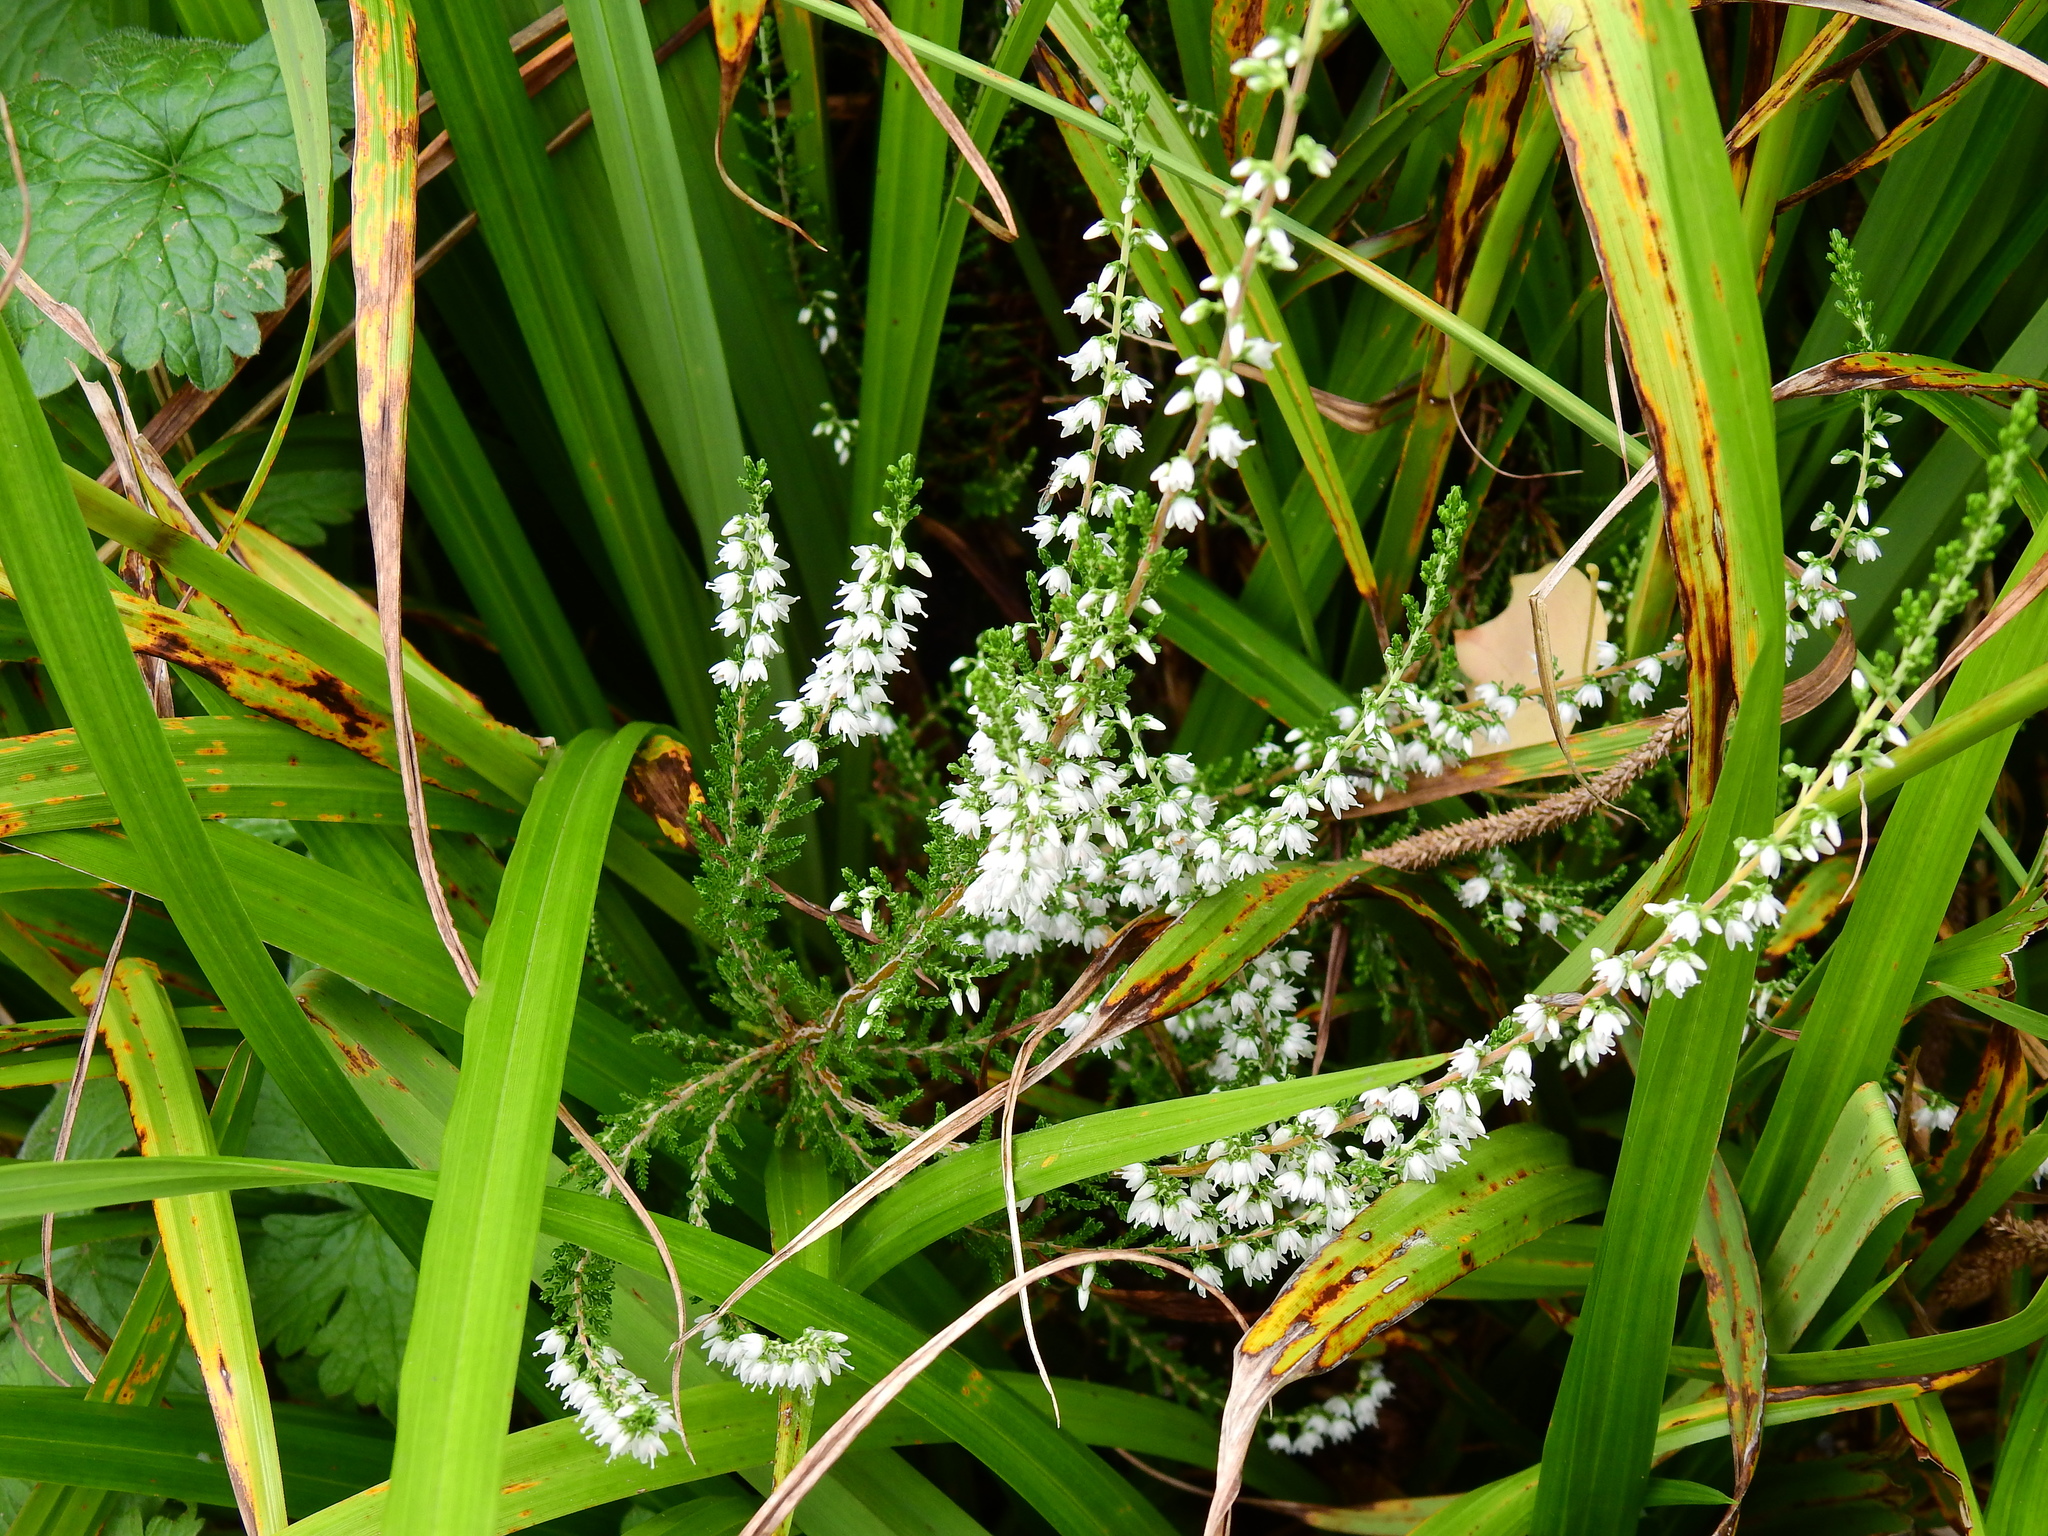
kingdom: Plantae
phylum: Tracheophyta
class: Magnoliopsida
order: Ericales
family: Ericaceae
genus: Calluna
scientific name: Calluna vulgaris
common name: Heather
